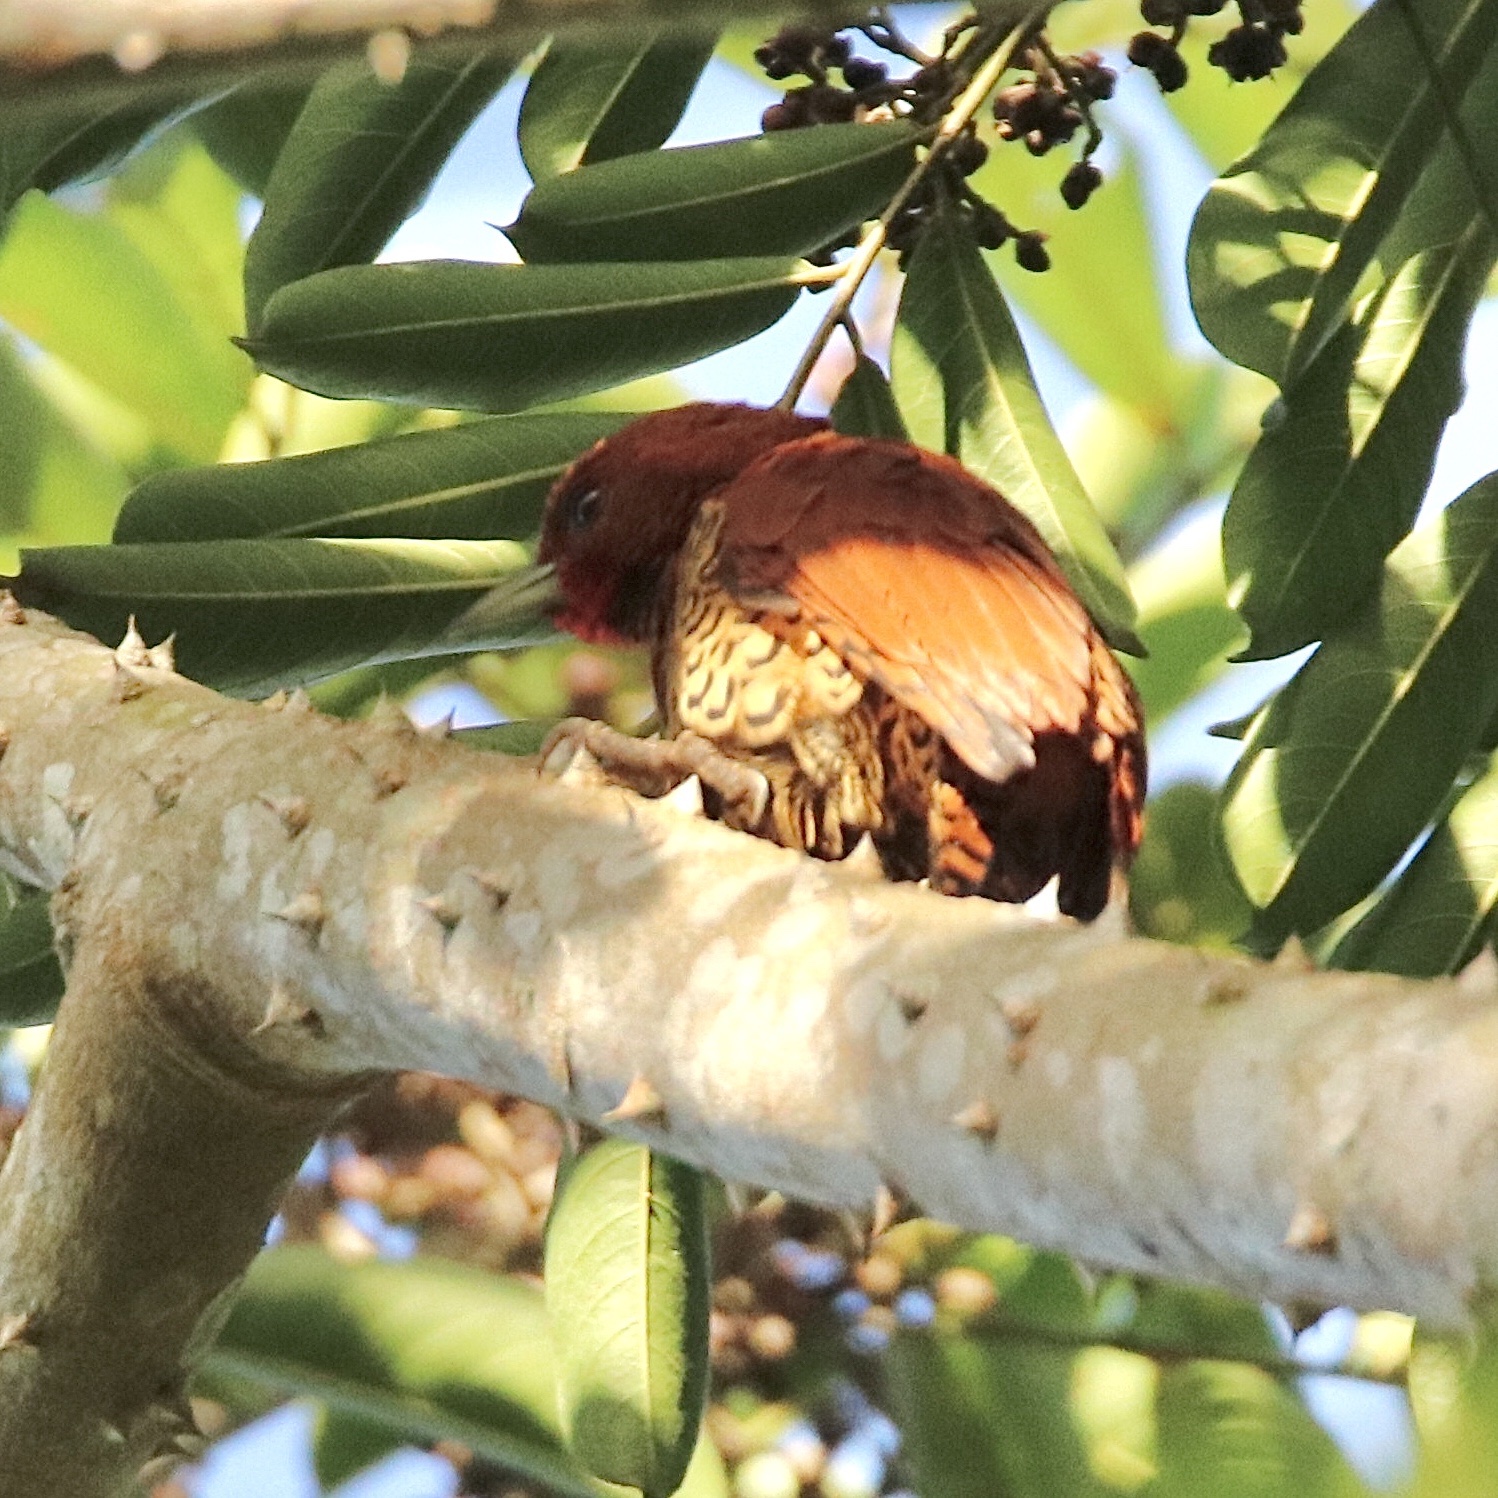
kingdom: Animalia
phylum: Chordata
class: Aves
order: Piciformes
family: Picidae
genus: Celeus
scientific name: Celeus loricatus
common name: Cinnamon woodpecker
